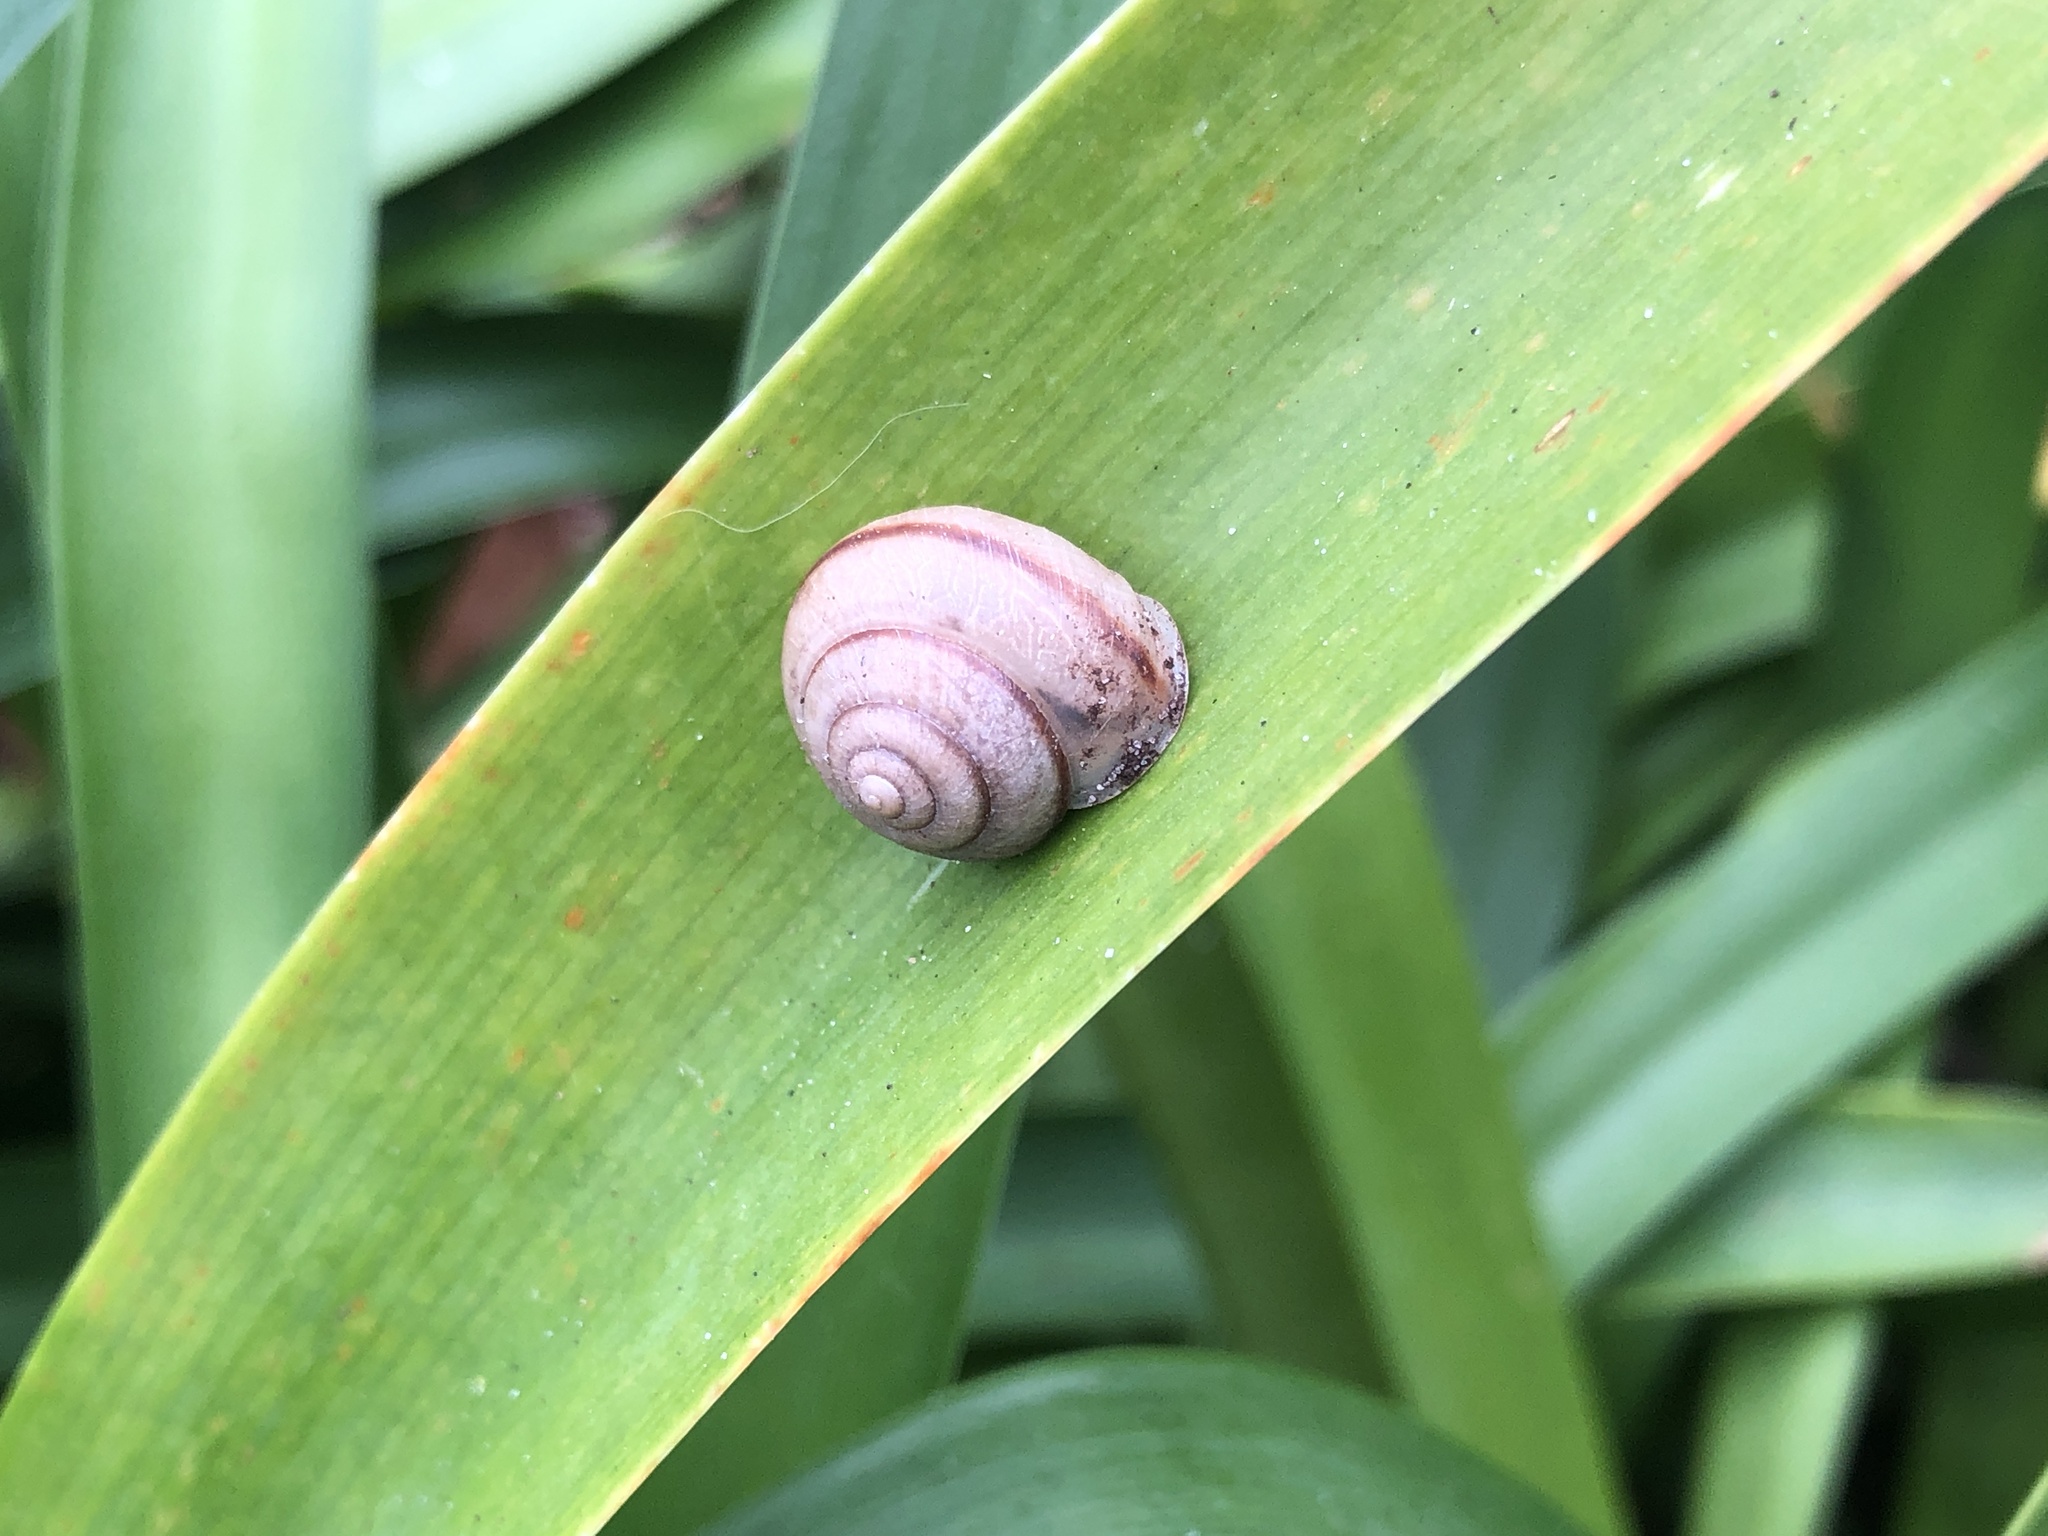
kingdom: Animalia
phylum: Mollusca
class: Gastropoda
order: Stylommatophora
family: Camaenidae
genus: Bradybaena
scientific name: Bradybaena similaris
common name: Asian trampsnail
